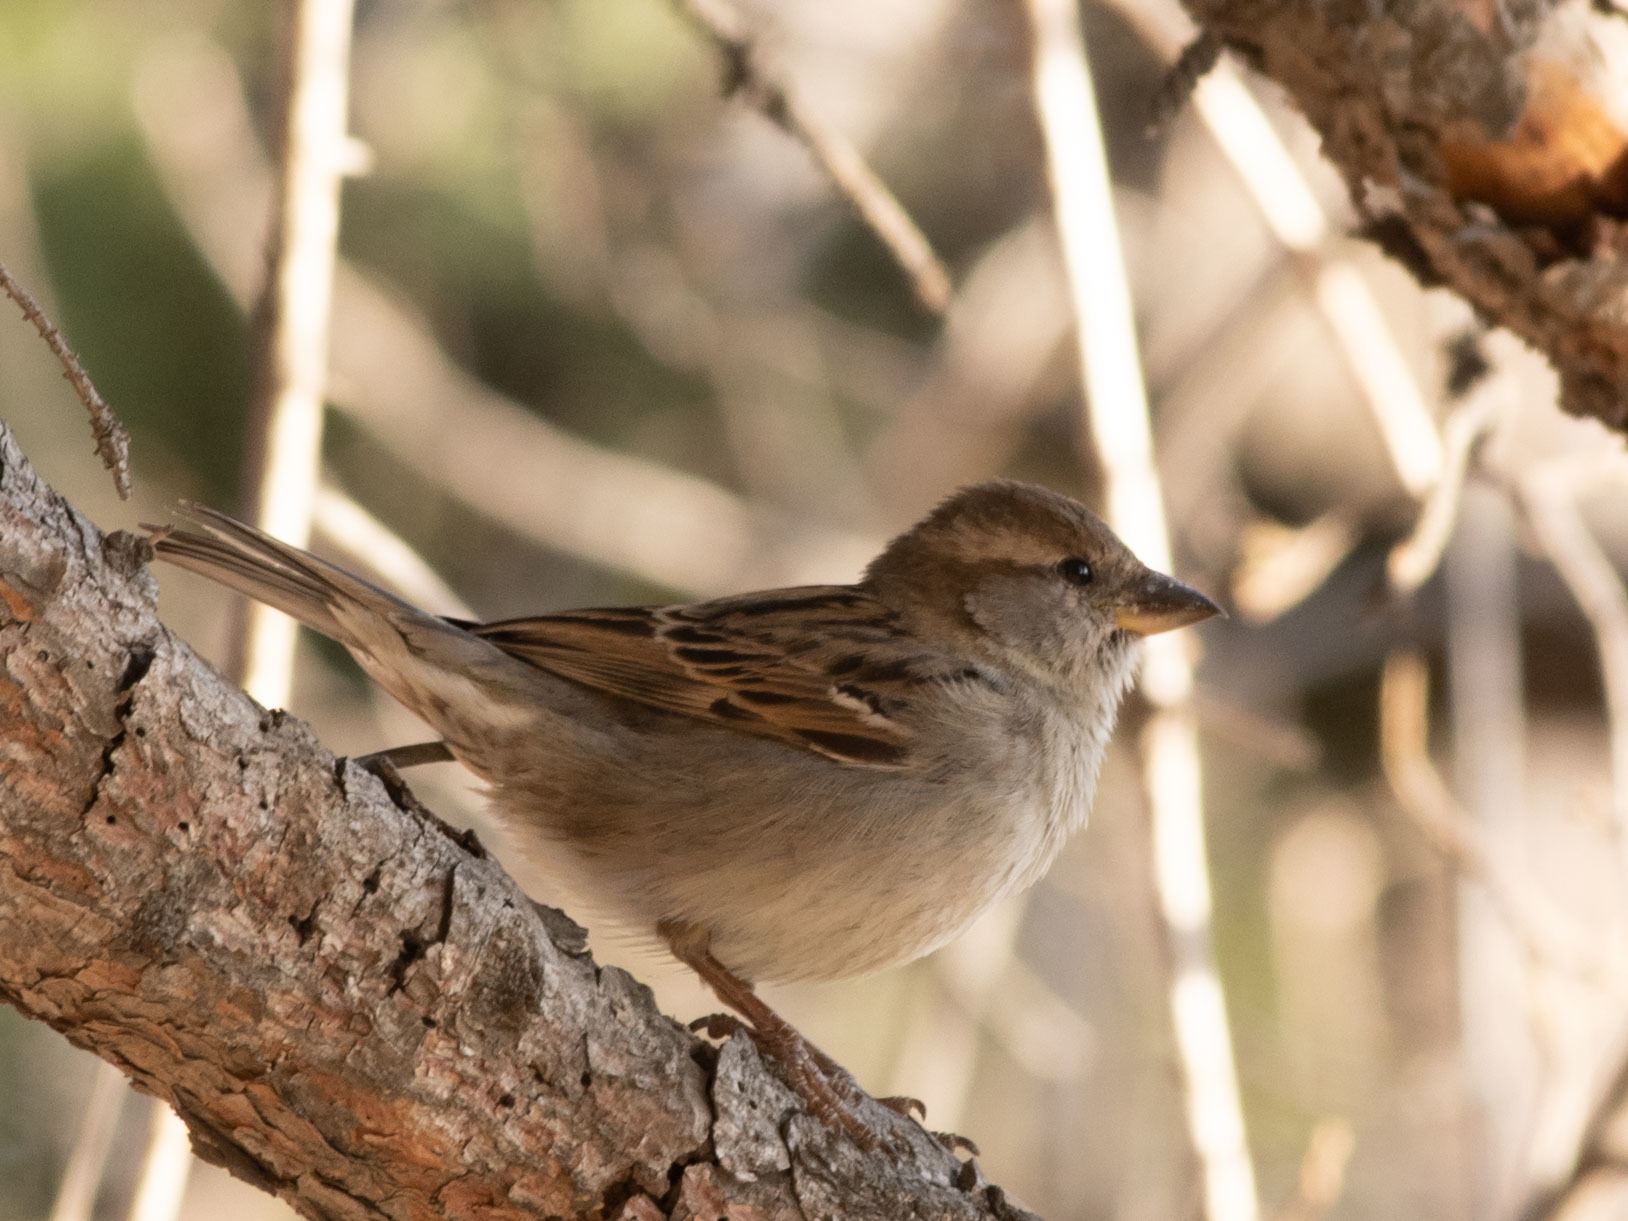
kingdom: Animalia
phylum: Chordata
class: Aves
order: Passeriformes
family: Passeridae
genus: Passer
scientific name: Passer domesticus
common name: House sparrow
